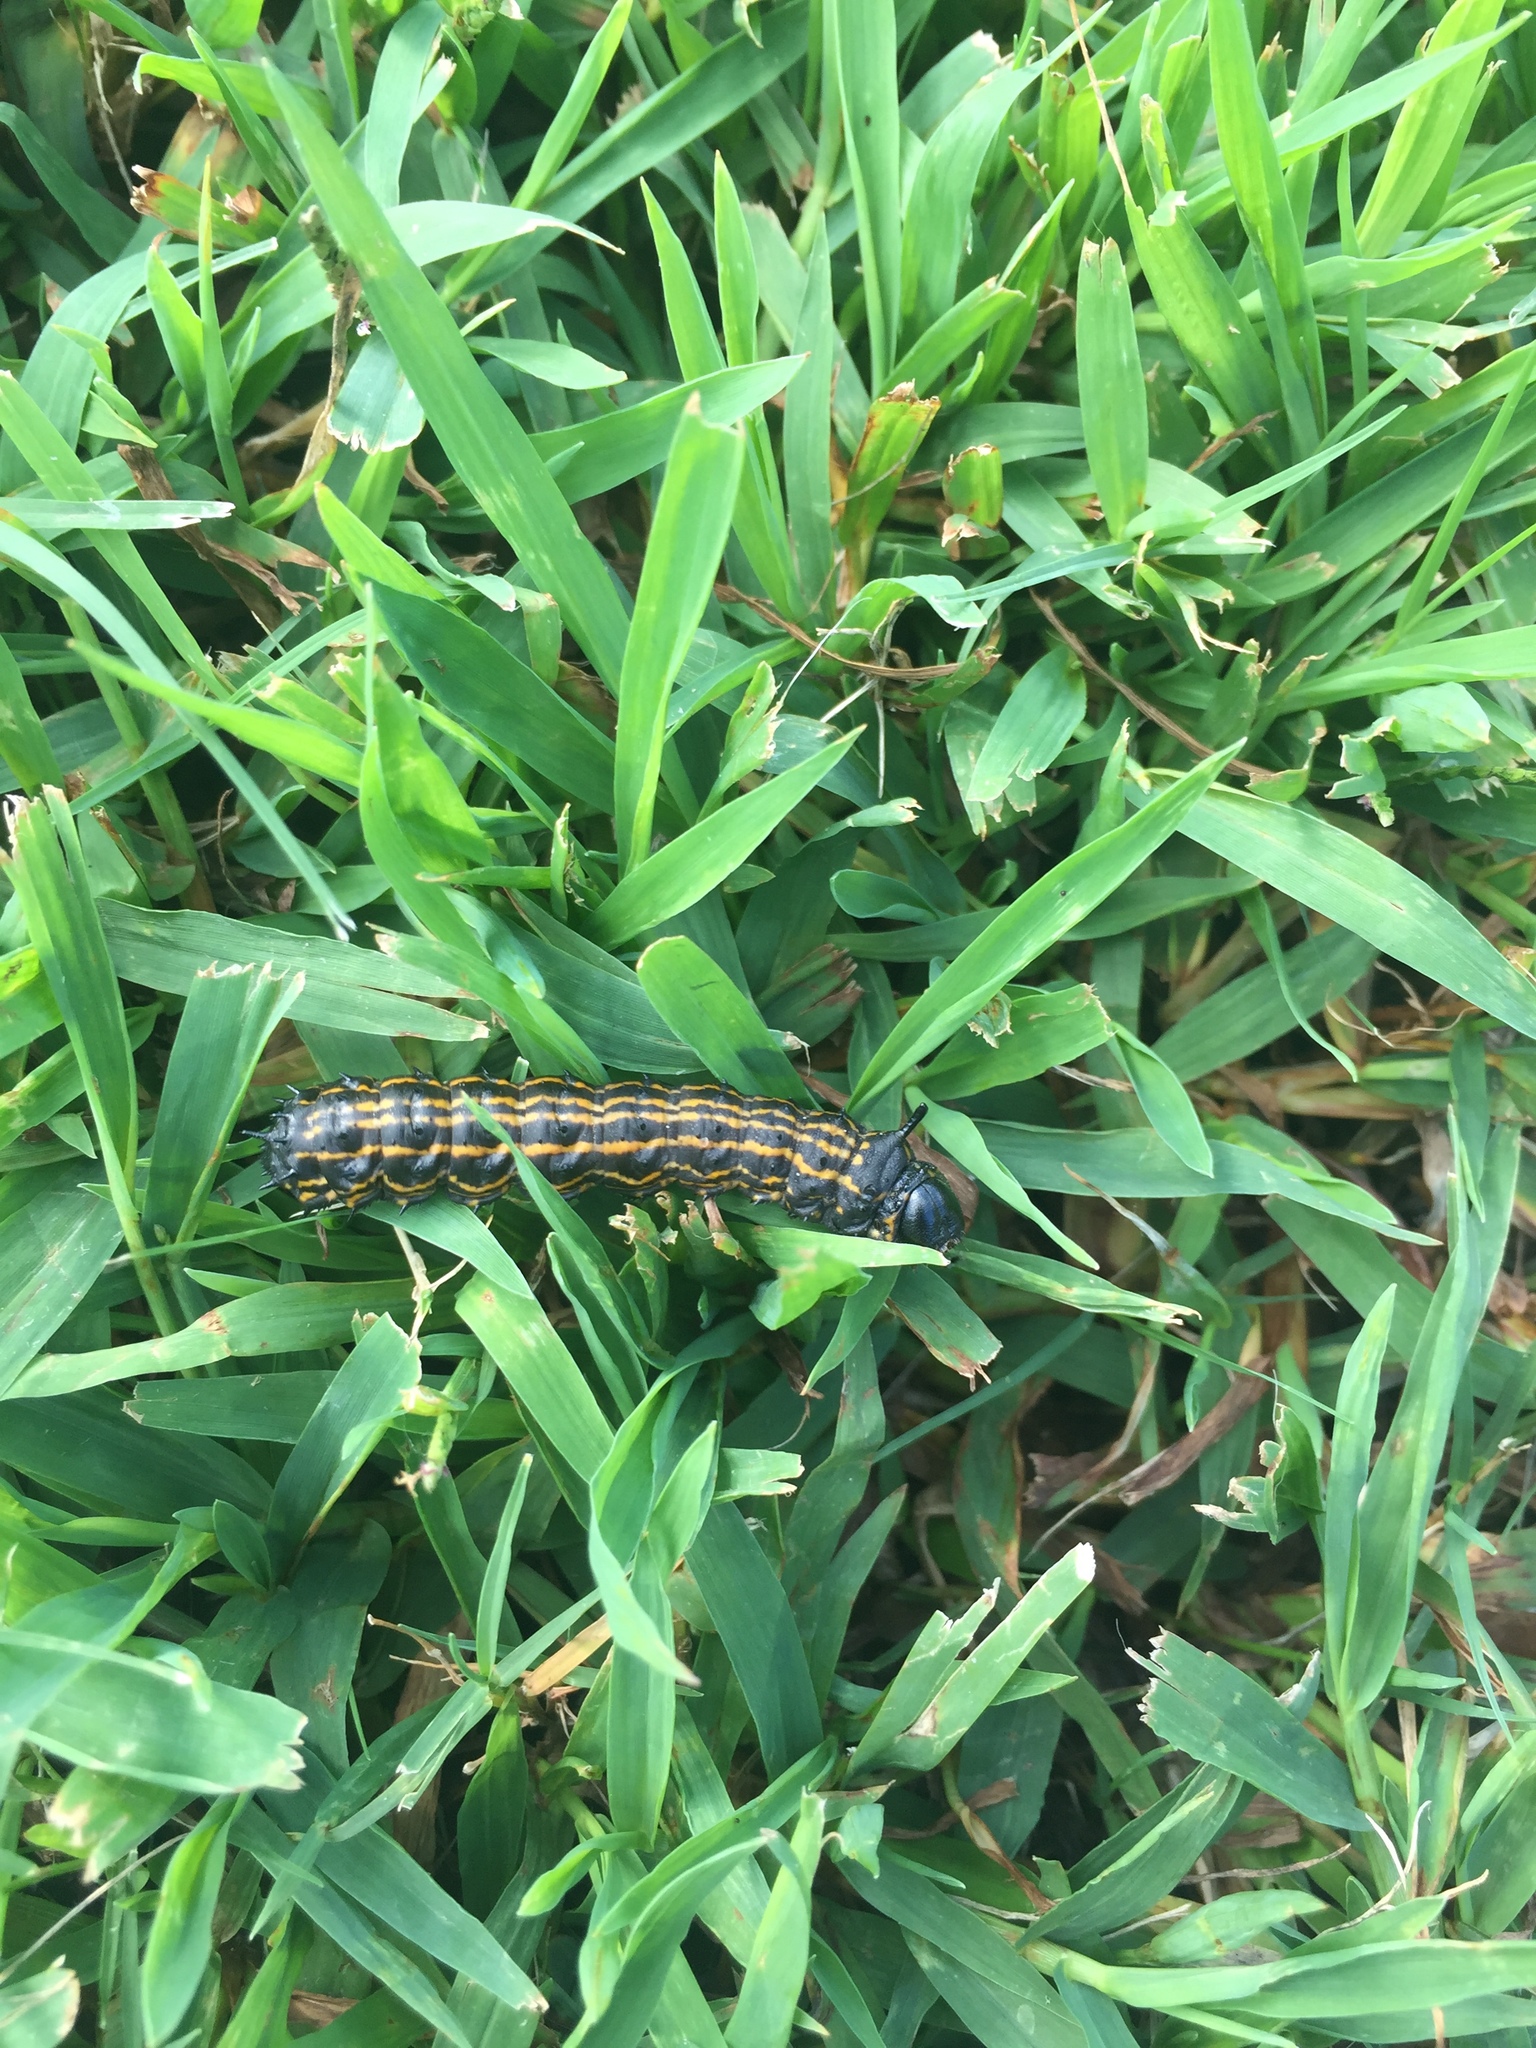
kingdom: Animalia
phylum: Arthropoda
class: Insecta
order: Lepidoptera
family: Saturniidae
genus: Anisota
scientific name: Anisota senatoria
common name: Orange-striped oakworm moth
